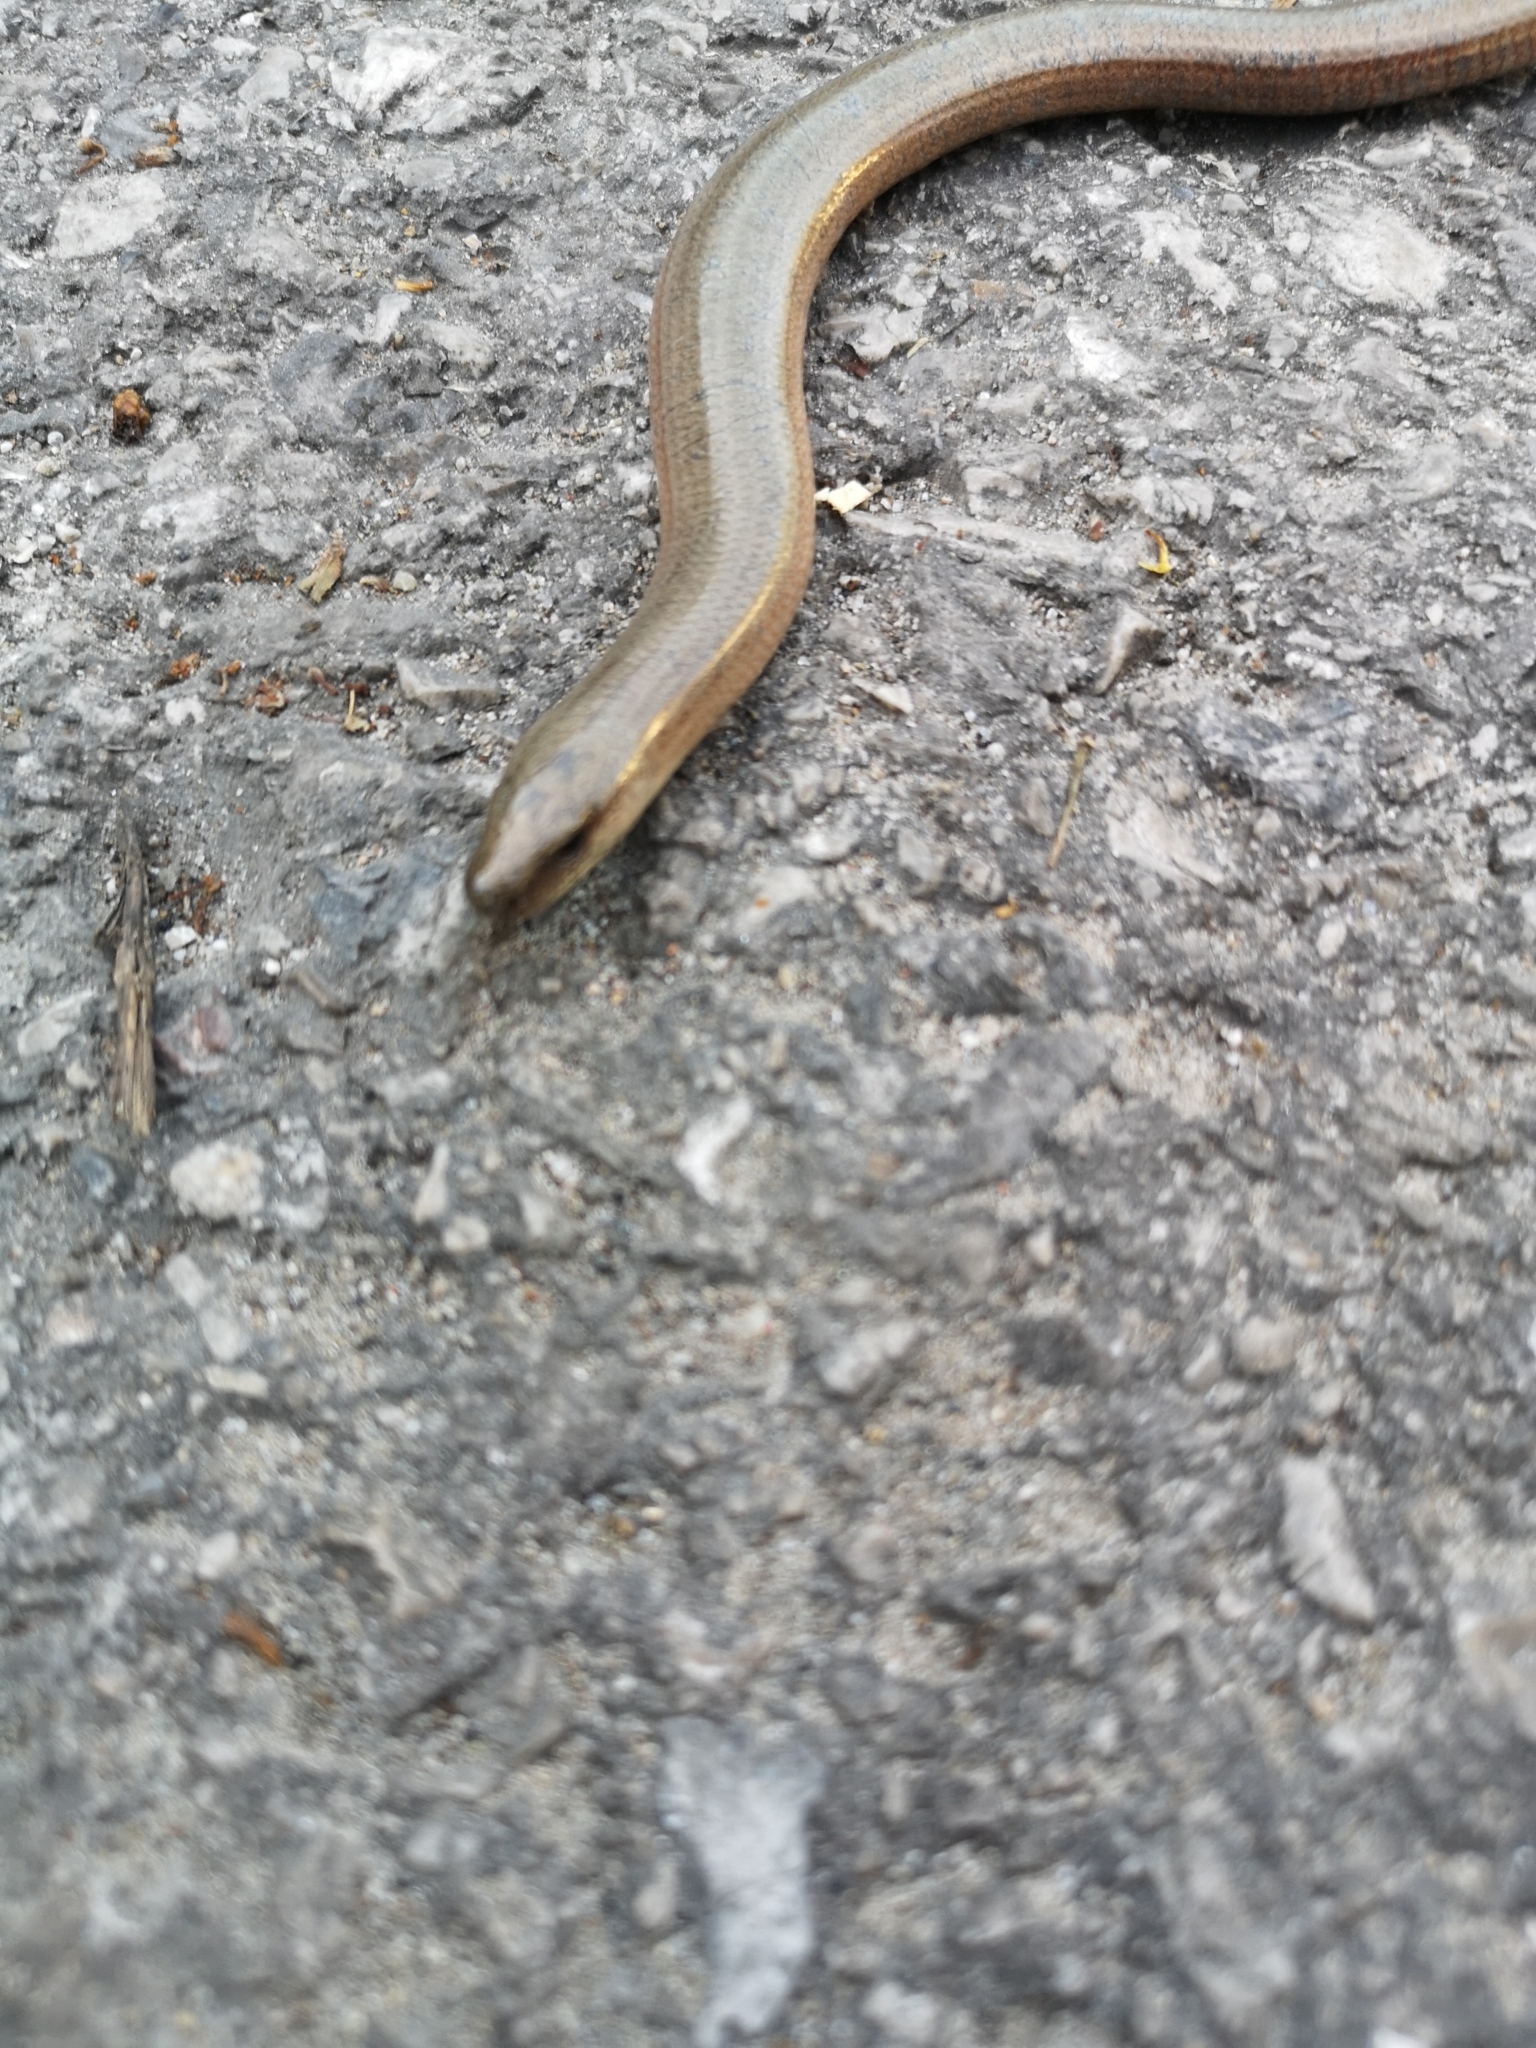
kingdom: Animalia
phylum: Chordata
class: Squamata
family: Anguidae
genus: Anguis
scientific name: Anguis fragilis
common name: Slow worm
